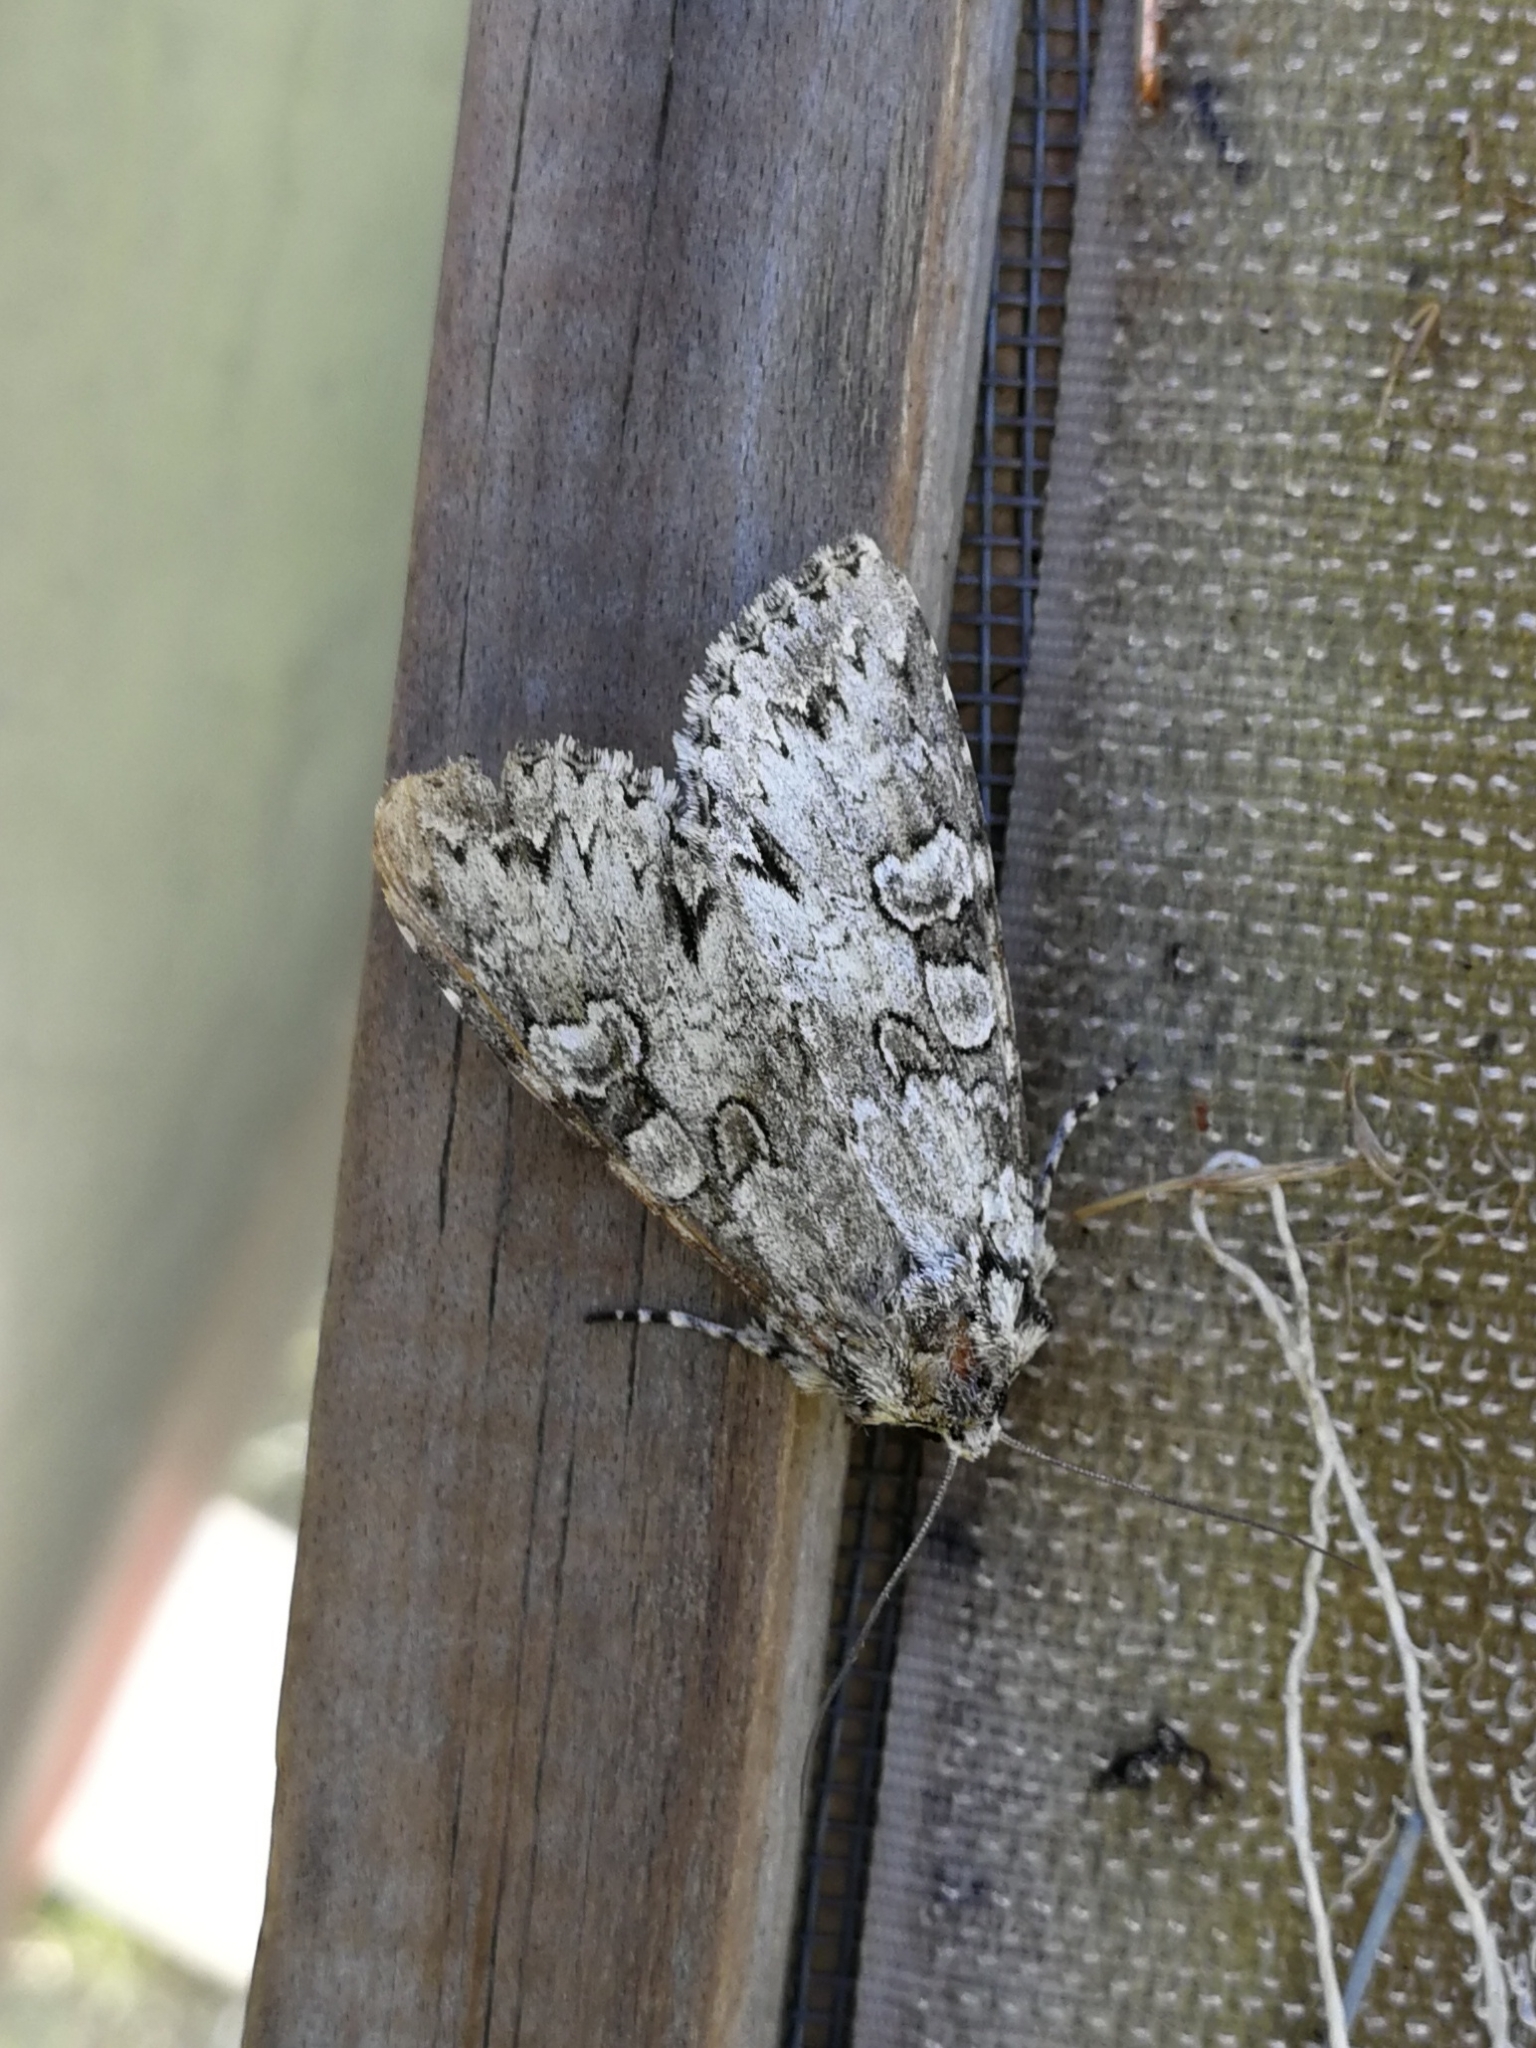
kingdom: Animalia
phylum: Arthropoda
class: Insecta
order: Lepidoptera
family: Noctuidae
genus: Polia
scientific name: Polia nebulosa
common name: Grey arches
